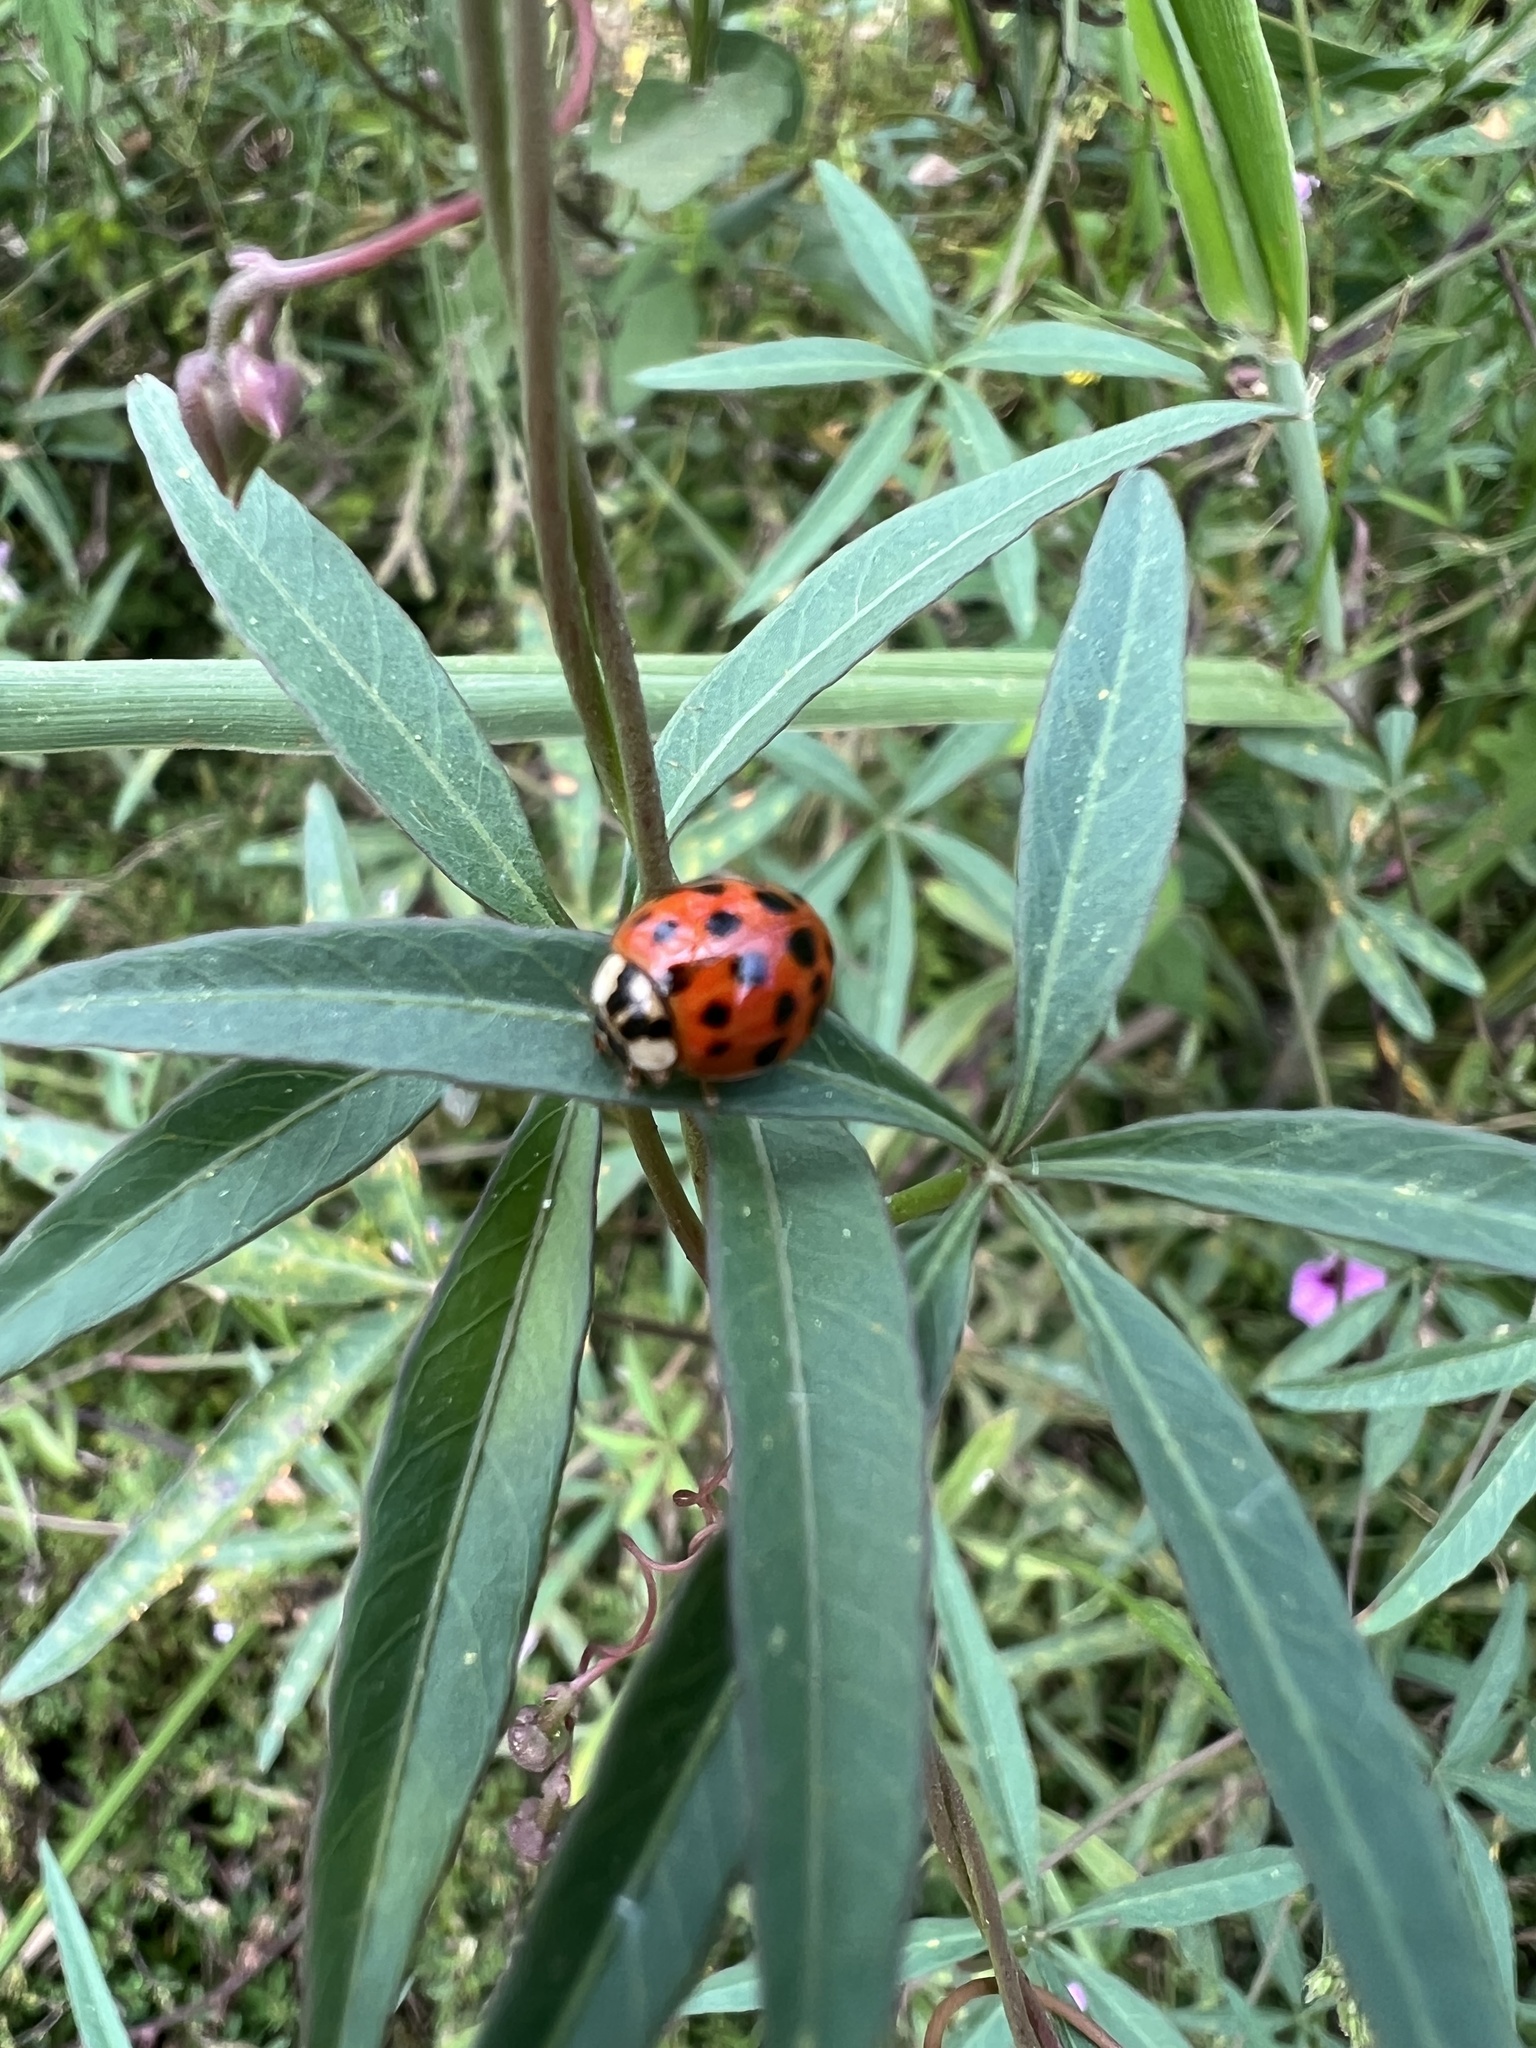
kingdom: Animalia
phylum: Arthropoda
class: Insecta
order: Coleoptera
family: Coccinellidae
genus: Harmonia
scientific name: Harmonia axyridis
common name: Harlequin ladybird
